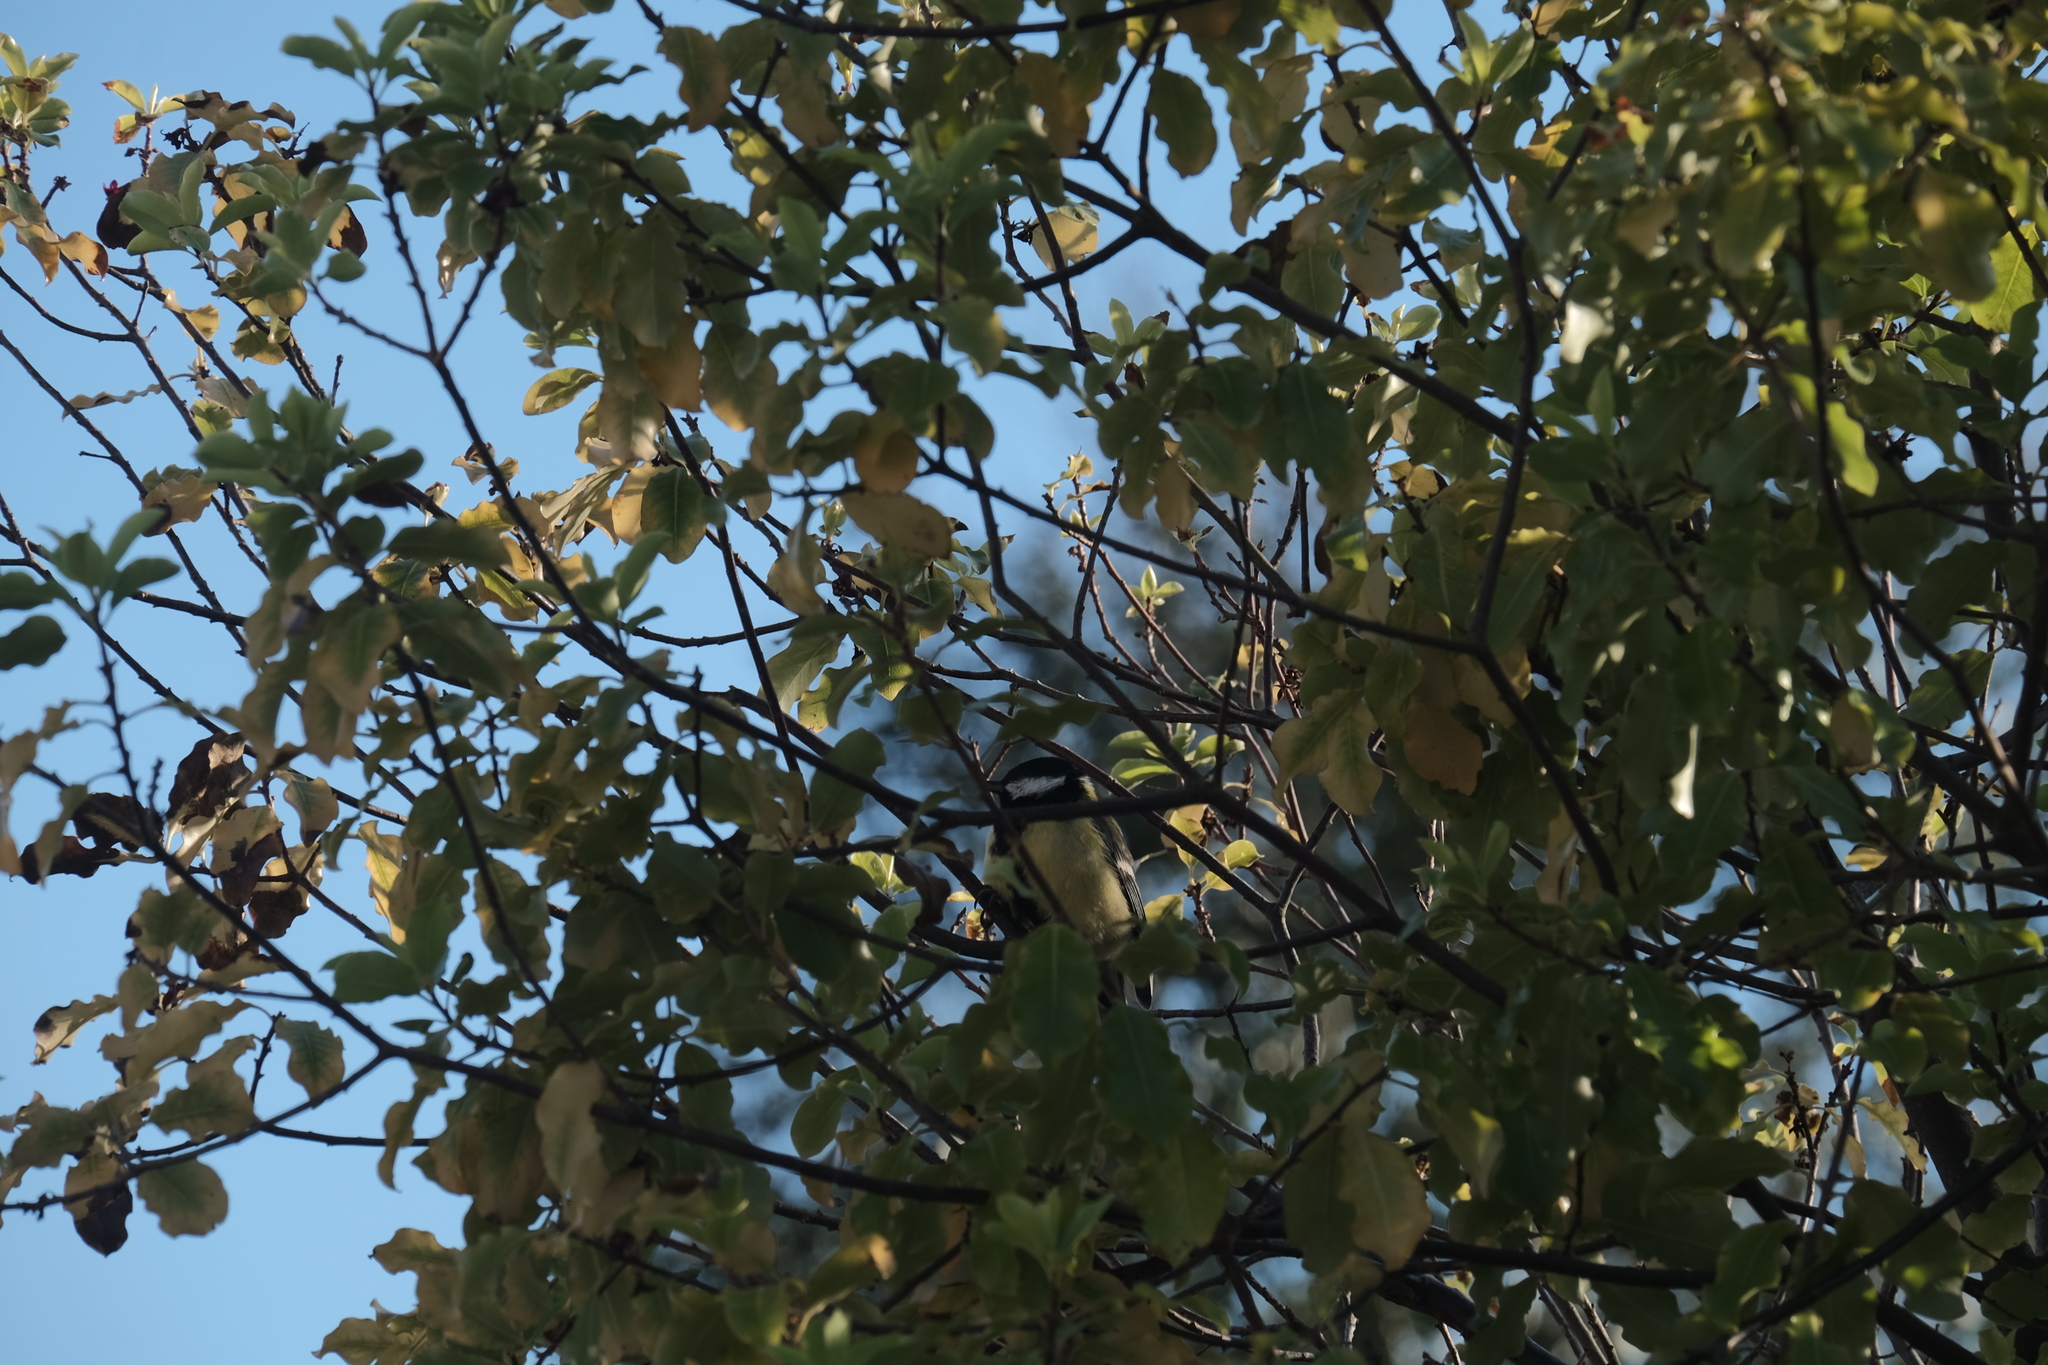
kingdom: Animalia
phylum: Chordata
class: Aves
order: Passeriformes
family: Paridae
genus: Parus
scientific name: Parus major
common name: Great tit
